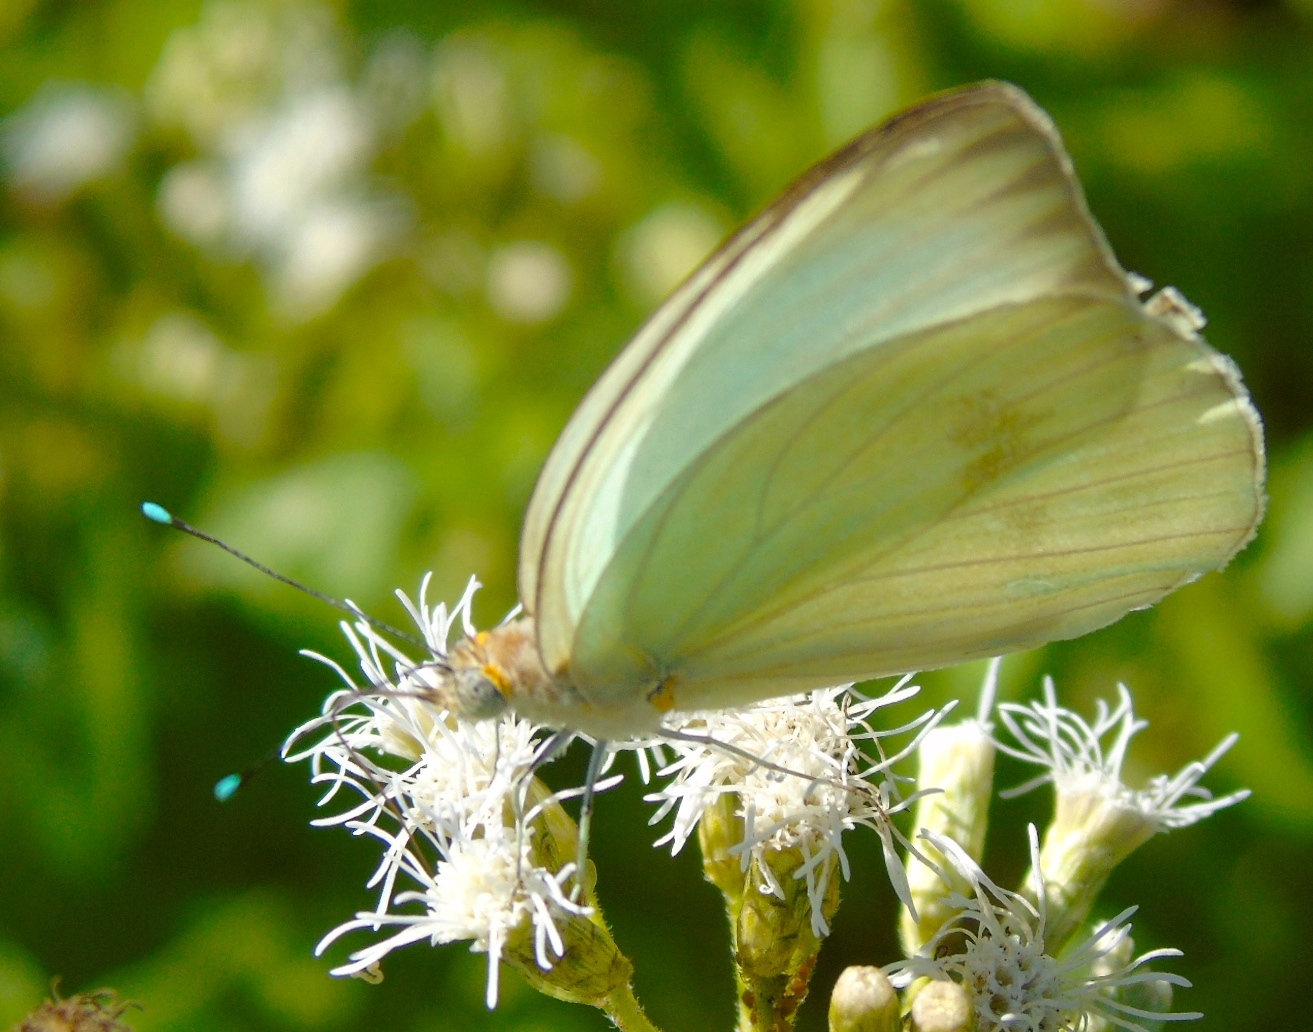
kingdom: Animalia
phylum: Arthropoda
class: Insecta
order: Lepidoptera
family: Pieridae
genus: Ascia
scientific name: Ascia monuste
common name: Great southern white
